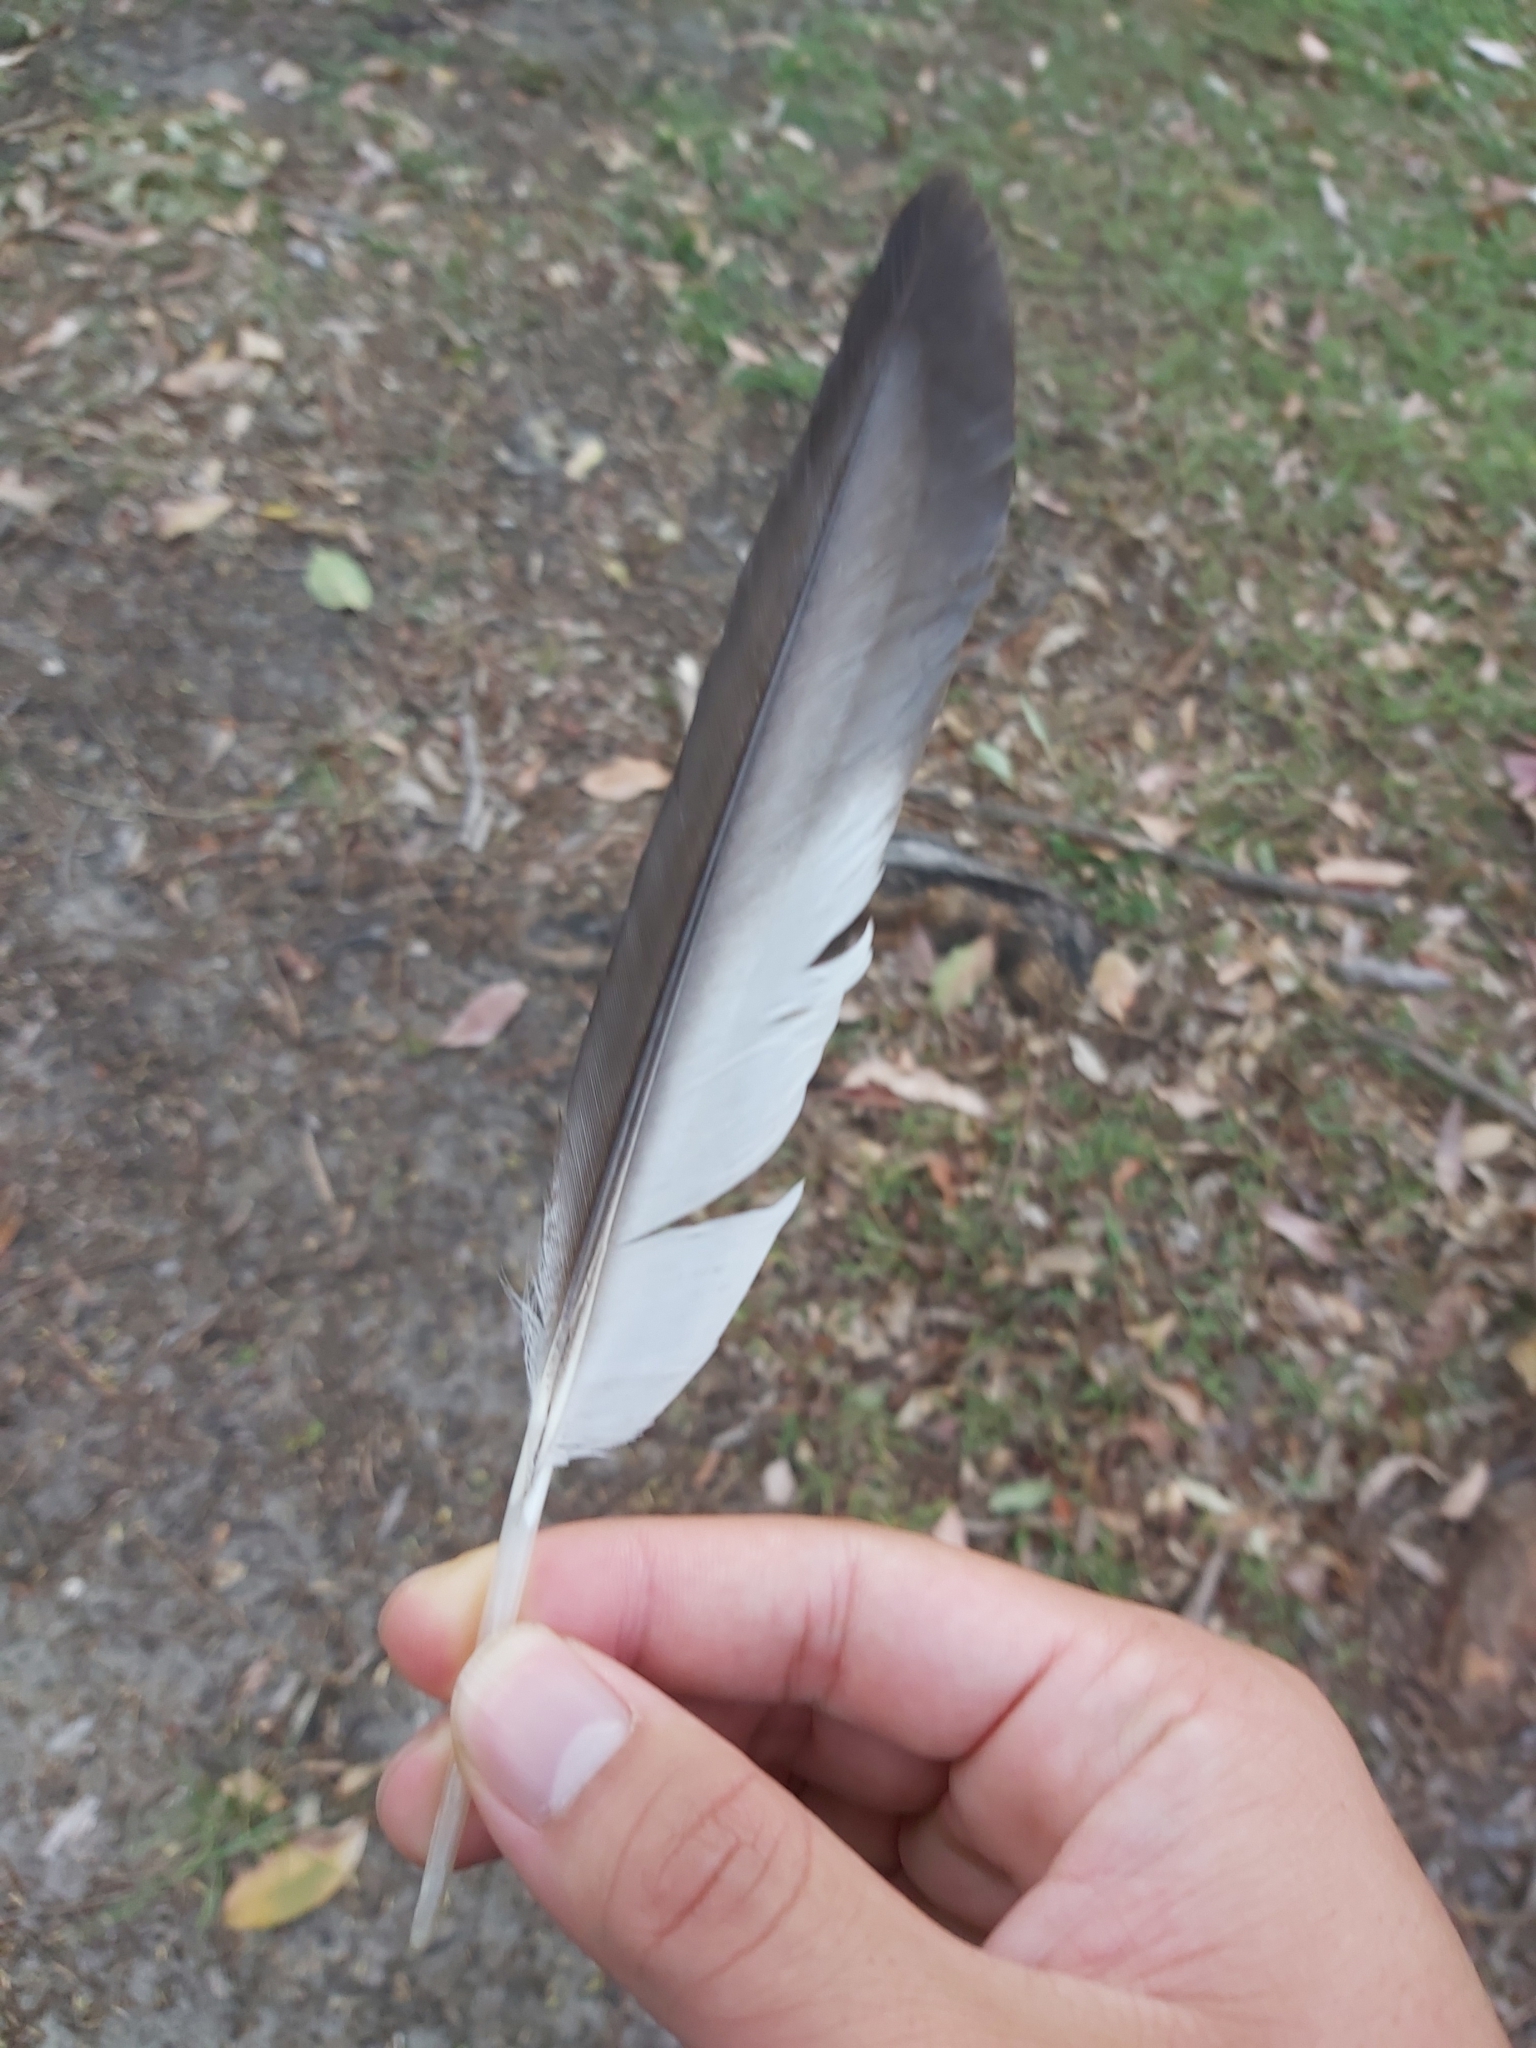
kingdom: Animalia
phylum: Chordata
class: Aves
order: Anseriformes
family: Anatidae
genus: Chenonetta
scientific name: Chenonetta jubata
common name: Maned duck
